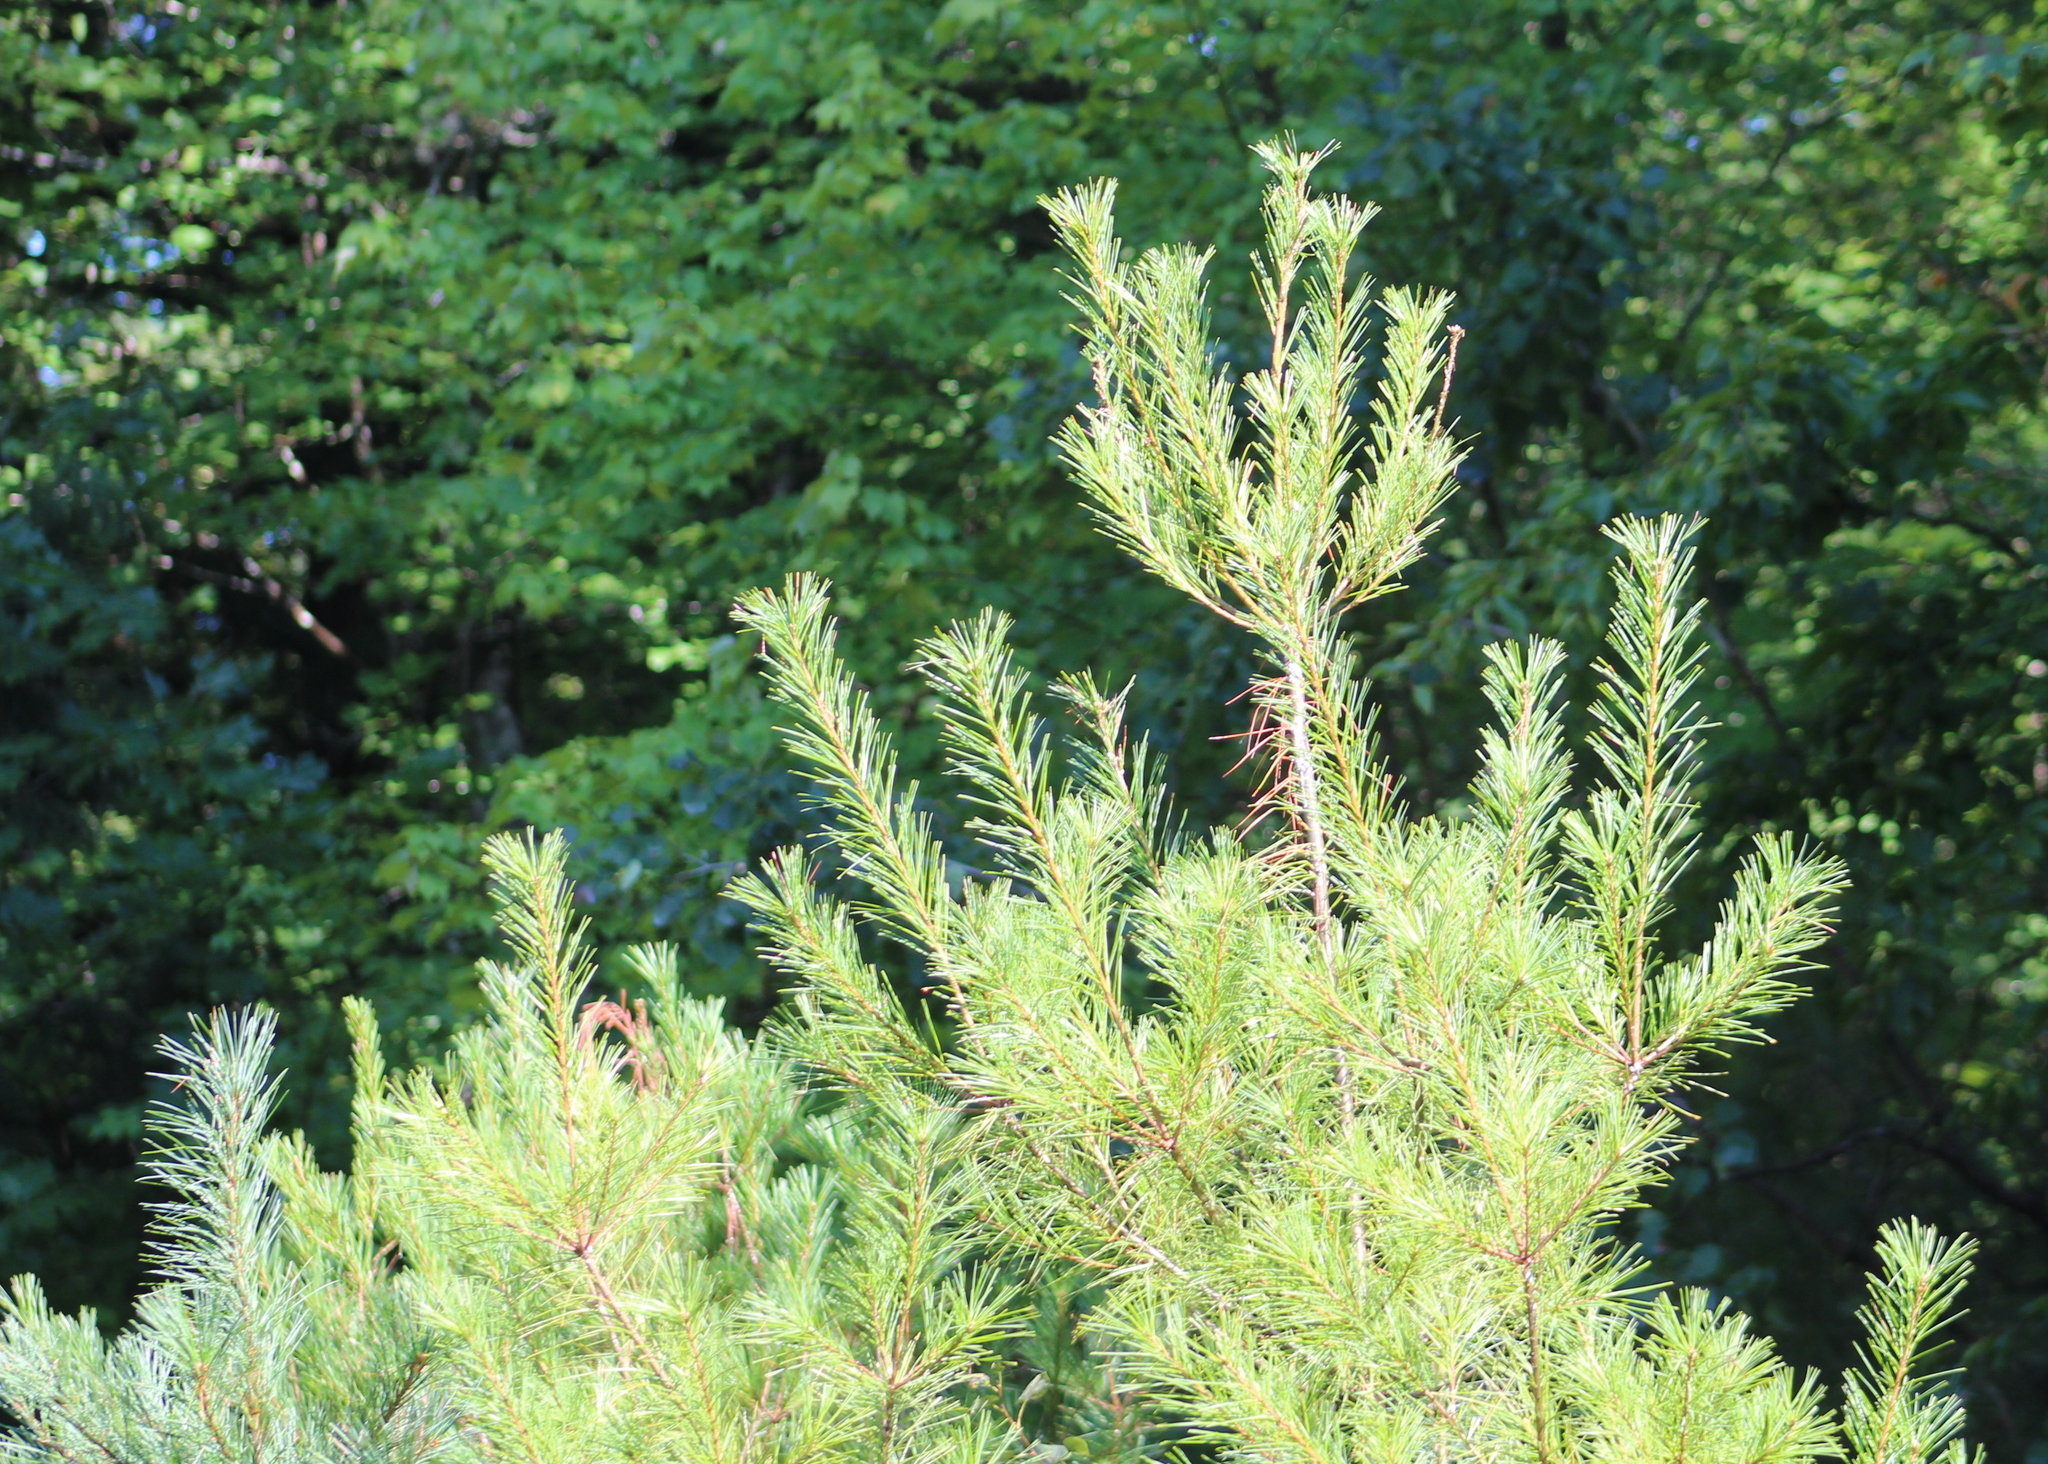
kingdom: Plantae
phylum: Tracheophyta
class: Pinopsida
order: Pinales
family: Pinaceae
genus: Pinus
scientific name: Pinus strobus
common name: Weymouth pine
